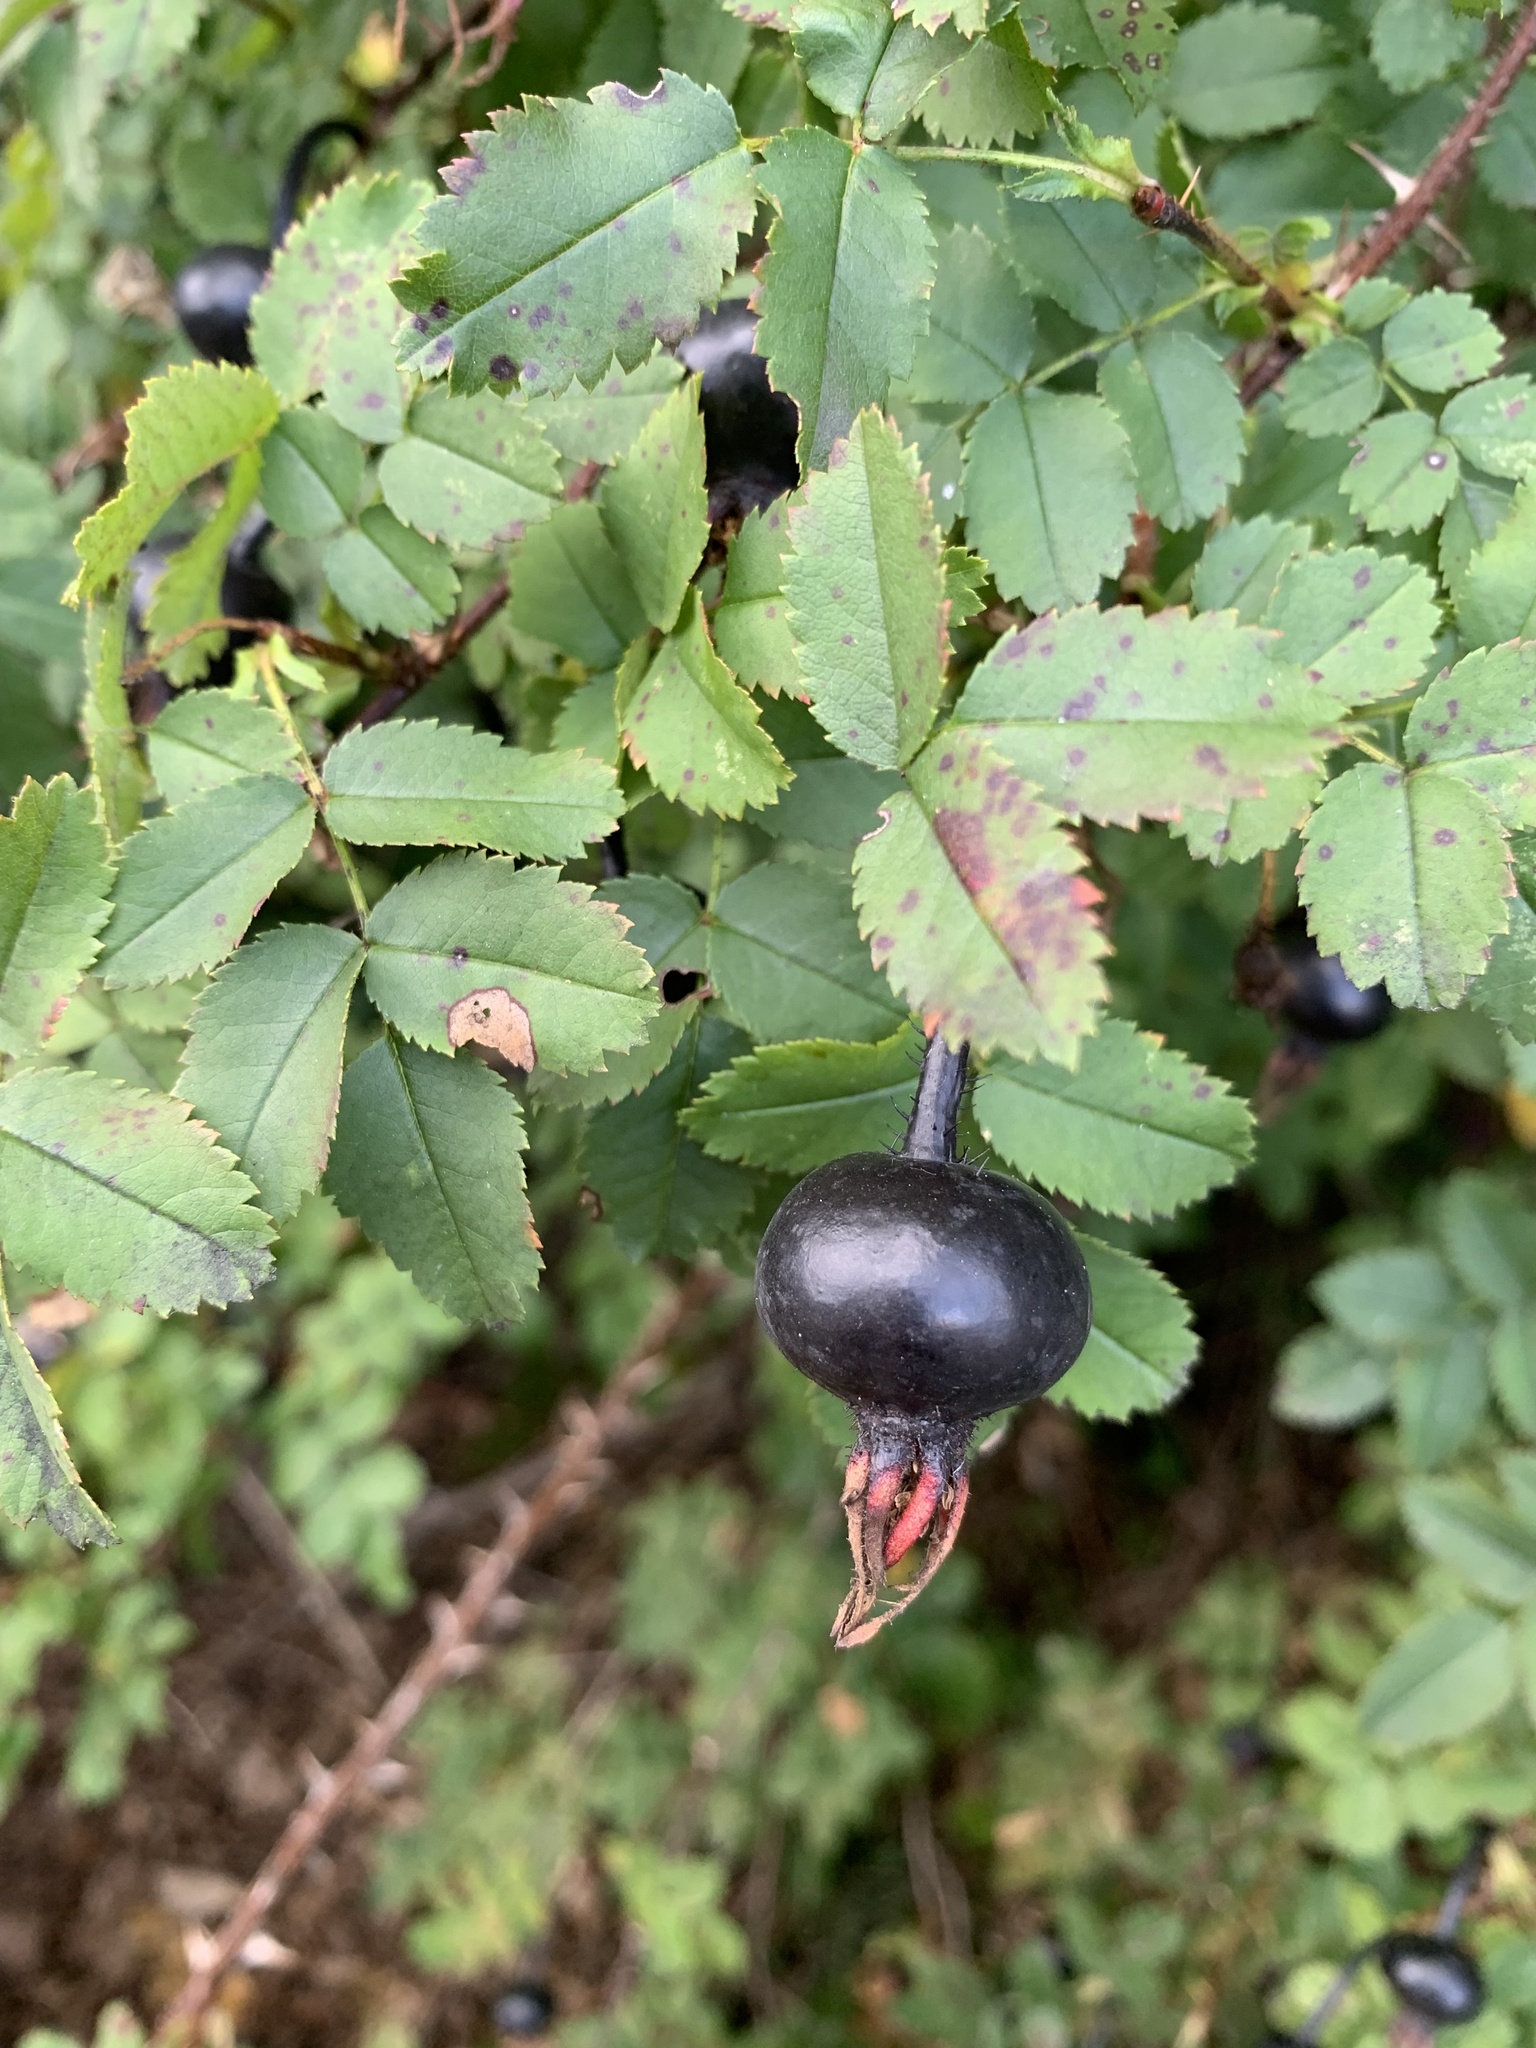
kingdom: Plantae
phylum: Tracheophyta
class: Magnoliopsida
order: Rosales
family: Rosaceae
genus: Rosa
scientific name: Rosa spinosissima
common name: Burnet rose
